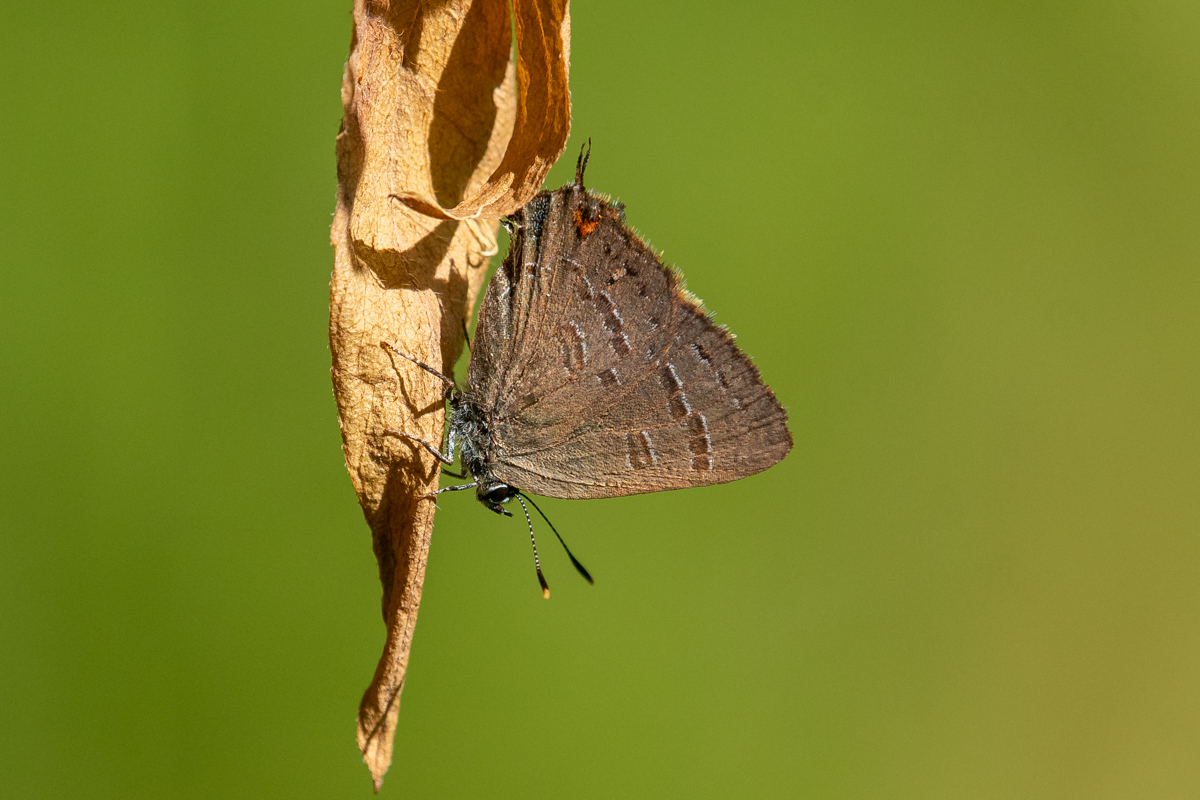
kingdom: Animalia
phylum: Arthropoda
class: Insecta
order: Lepidoptera
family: Lycaenidae
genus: Satyrium
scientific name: Satyrium calanus
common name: Banded hairstreak
